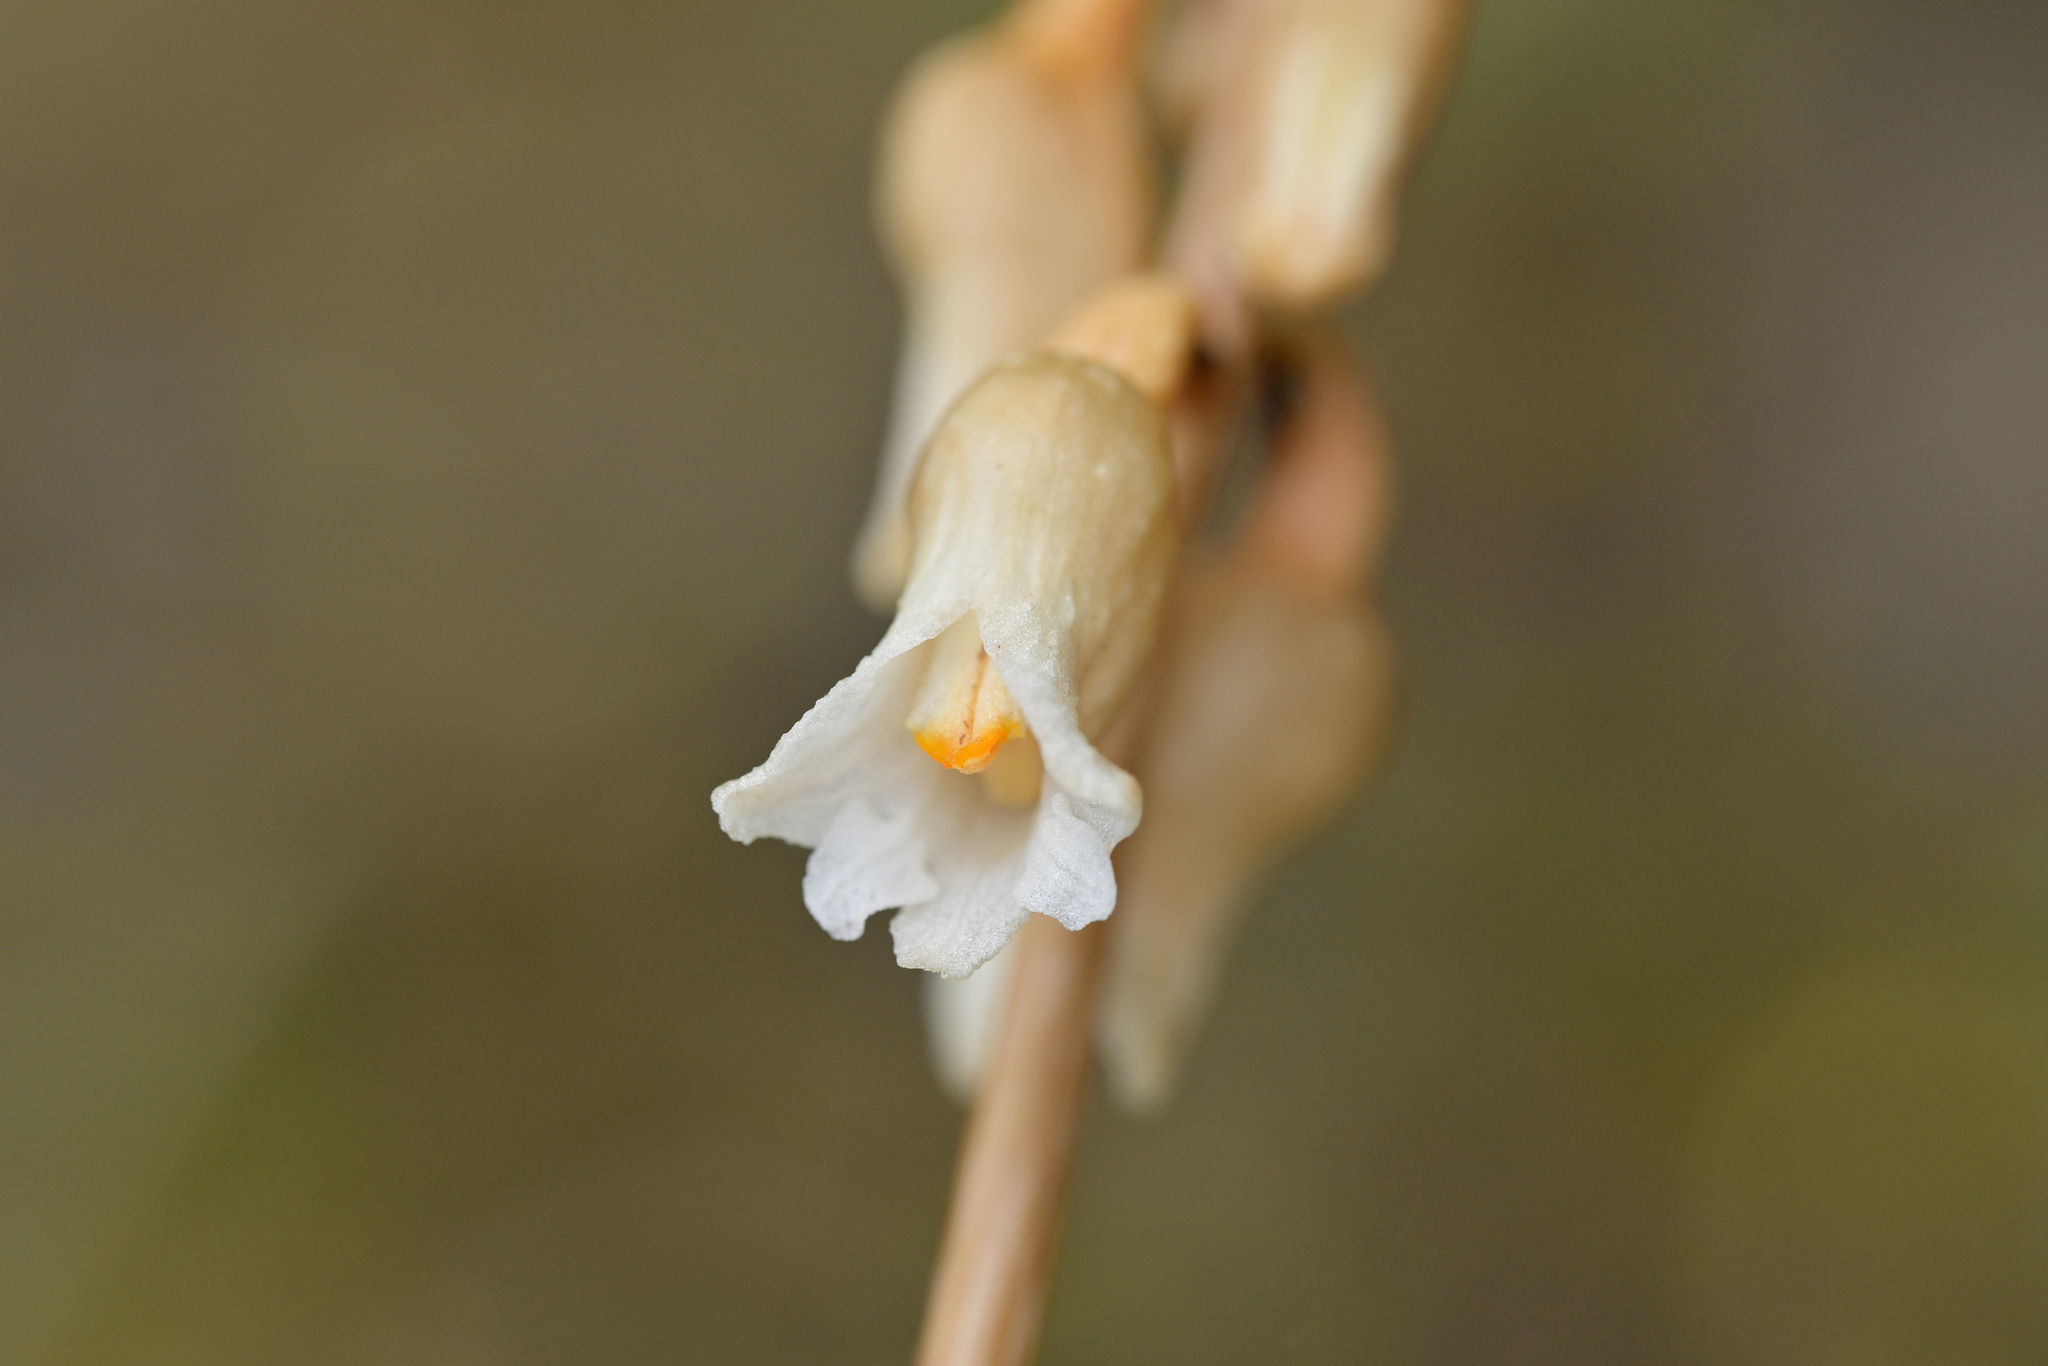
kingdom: Plantae
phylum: Tracheophyta
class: Liliopsida
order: Asparagales
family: Orchidaceae
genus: Gastrodia
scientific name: Gastrodia sesamoides
